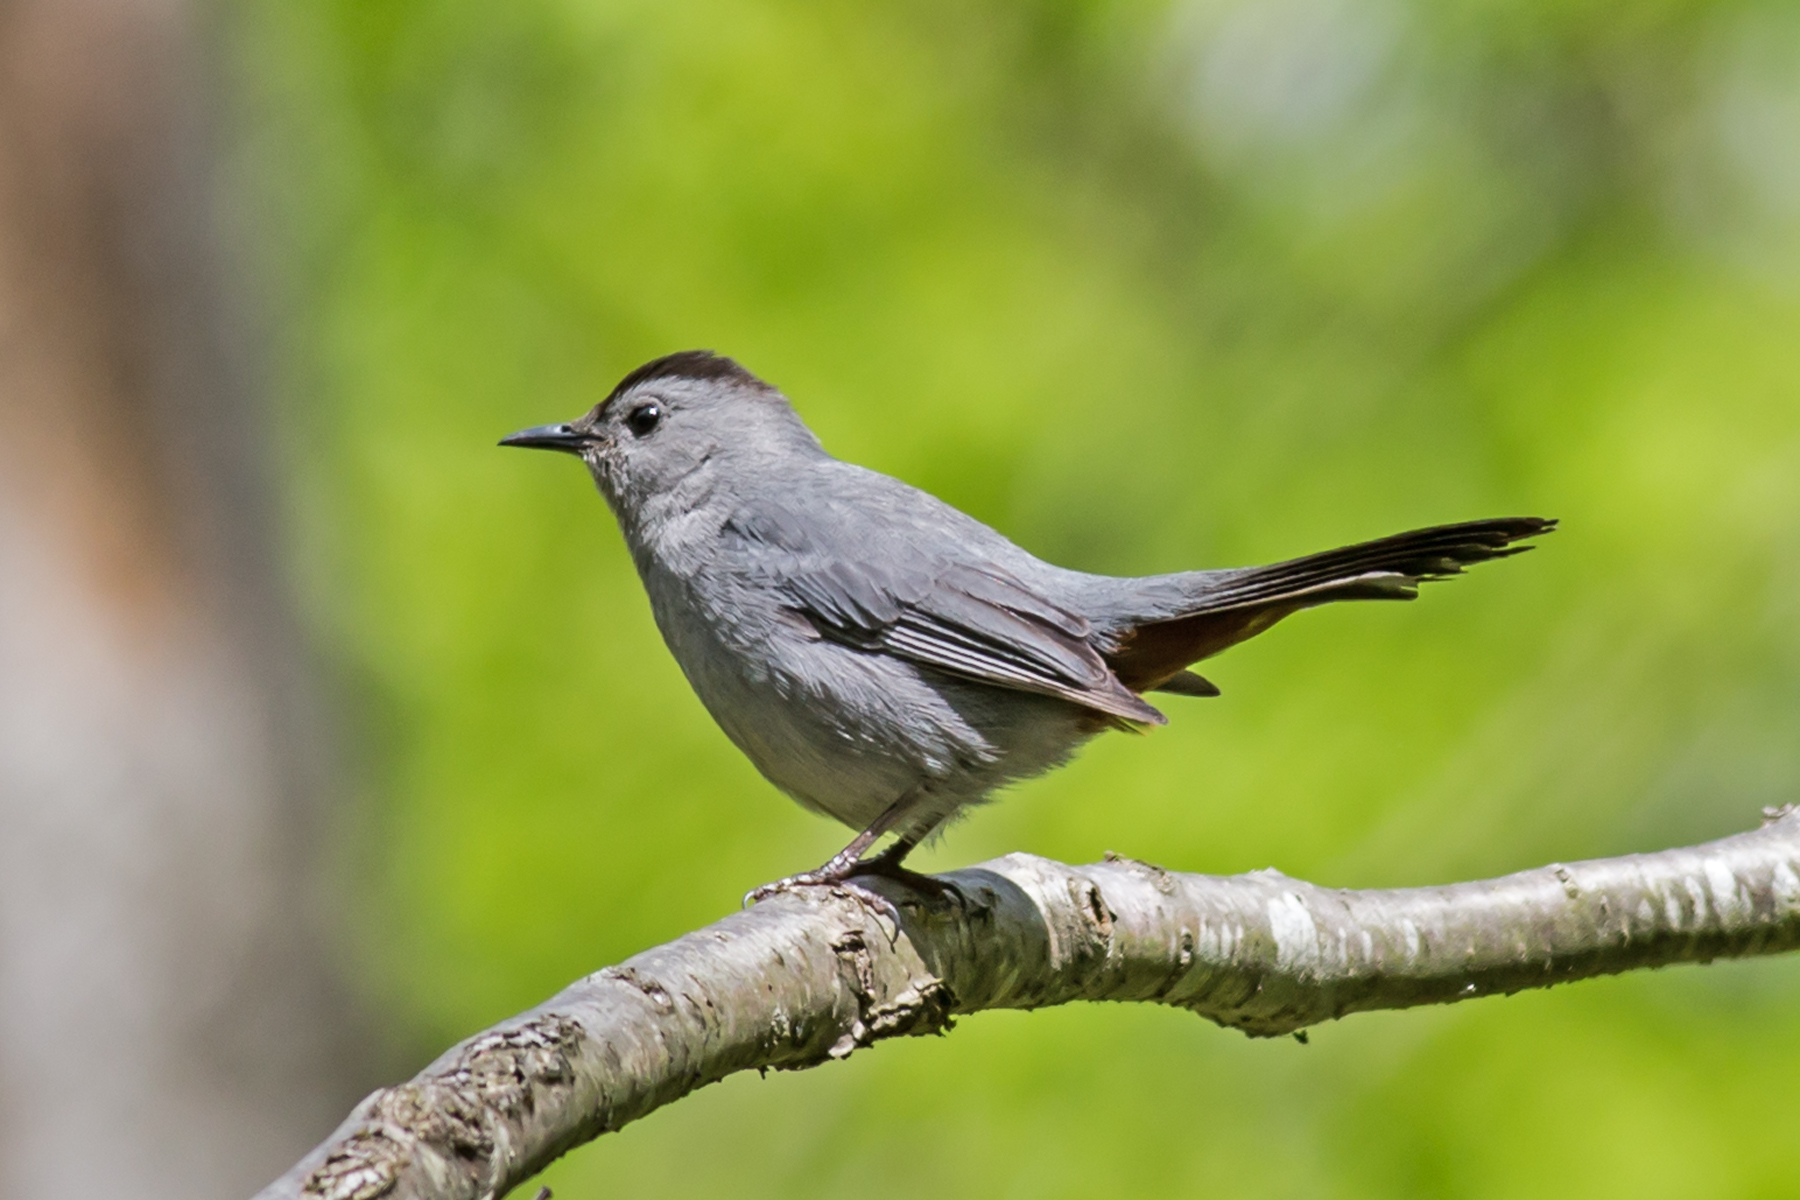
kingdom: Animalia
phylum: Chordata
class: Aves
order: Passeriformes
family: Mimidae
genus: Dumetella
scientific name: Dumetella carolinensis
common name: Gray catbird
